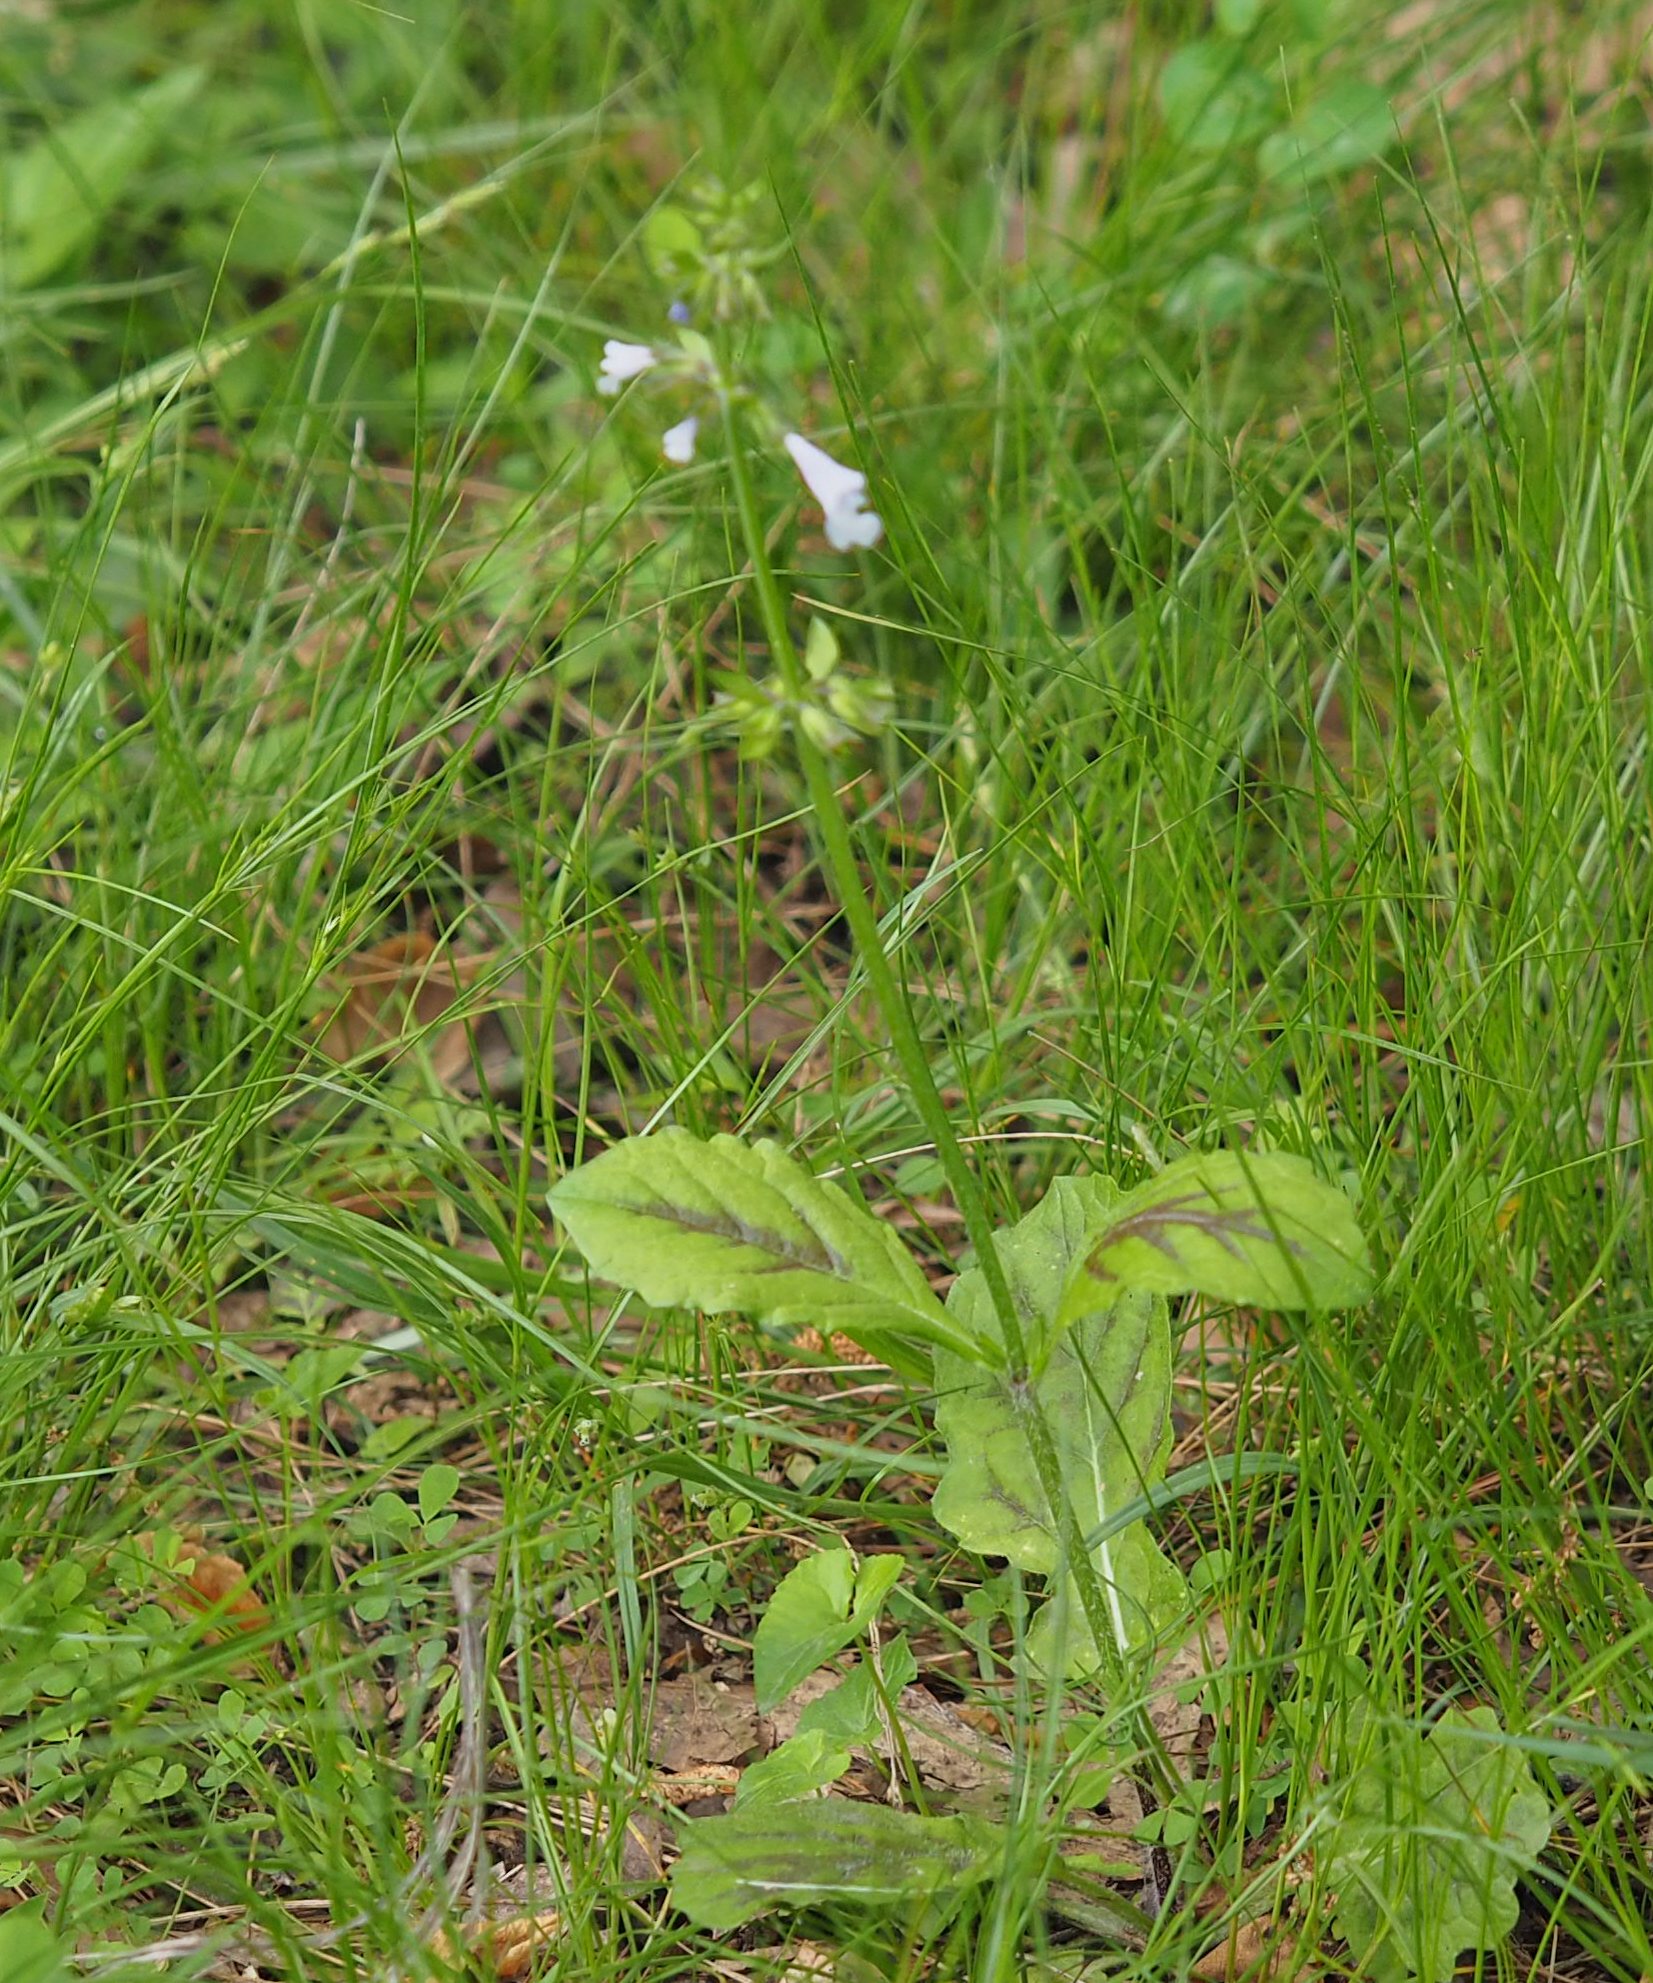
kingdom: Plantae
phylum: Tracheophyta
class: Magnoliopsida
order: Lamiales
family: Lamiaceae
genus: Salvia
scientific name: Salvia lyrata
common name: Cancerweed
